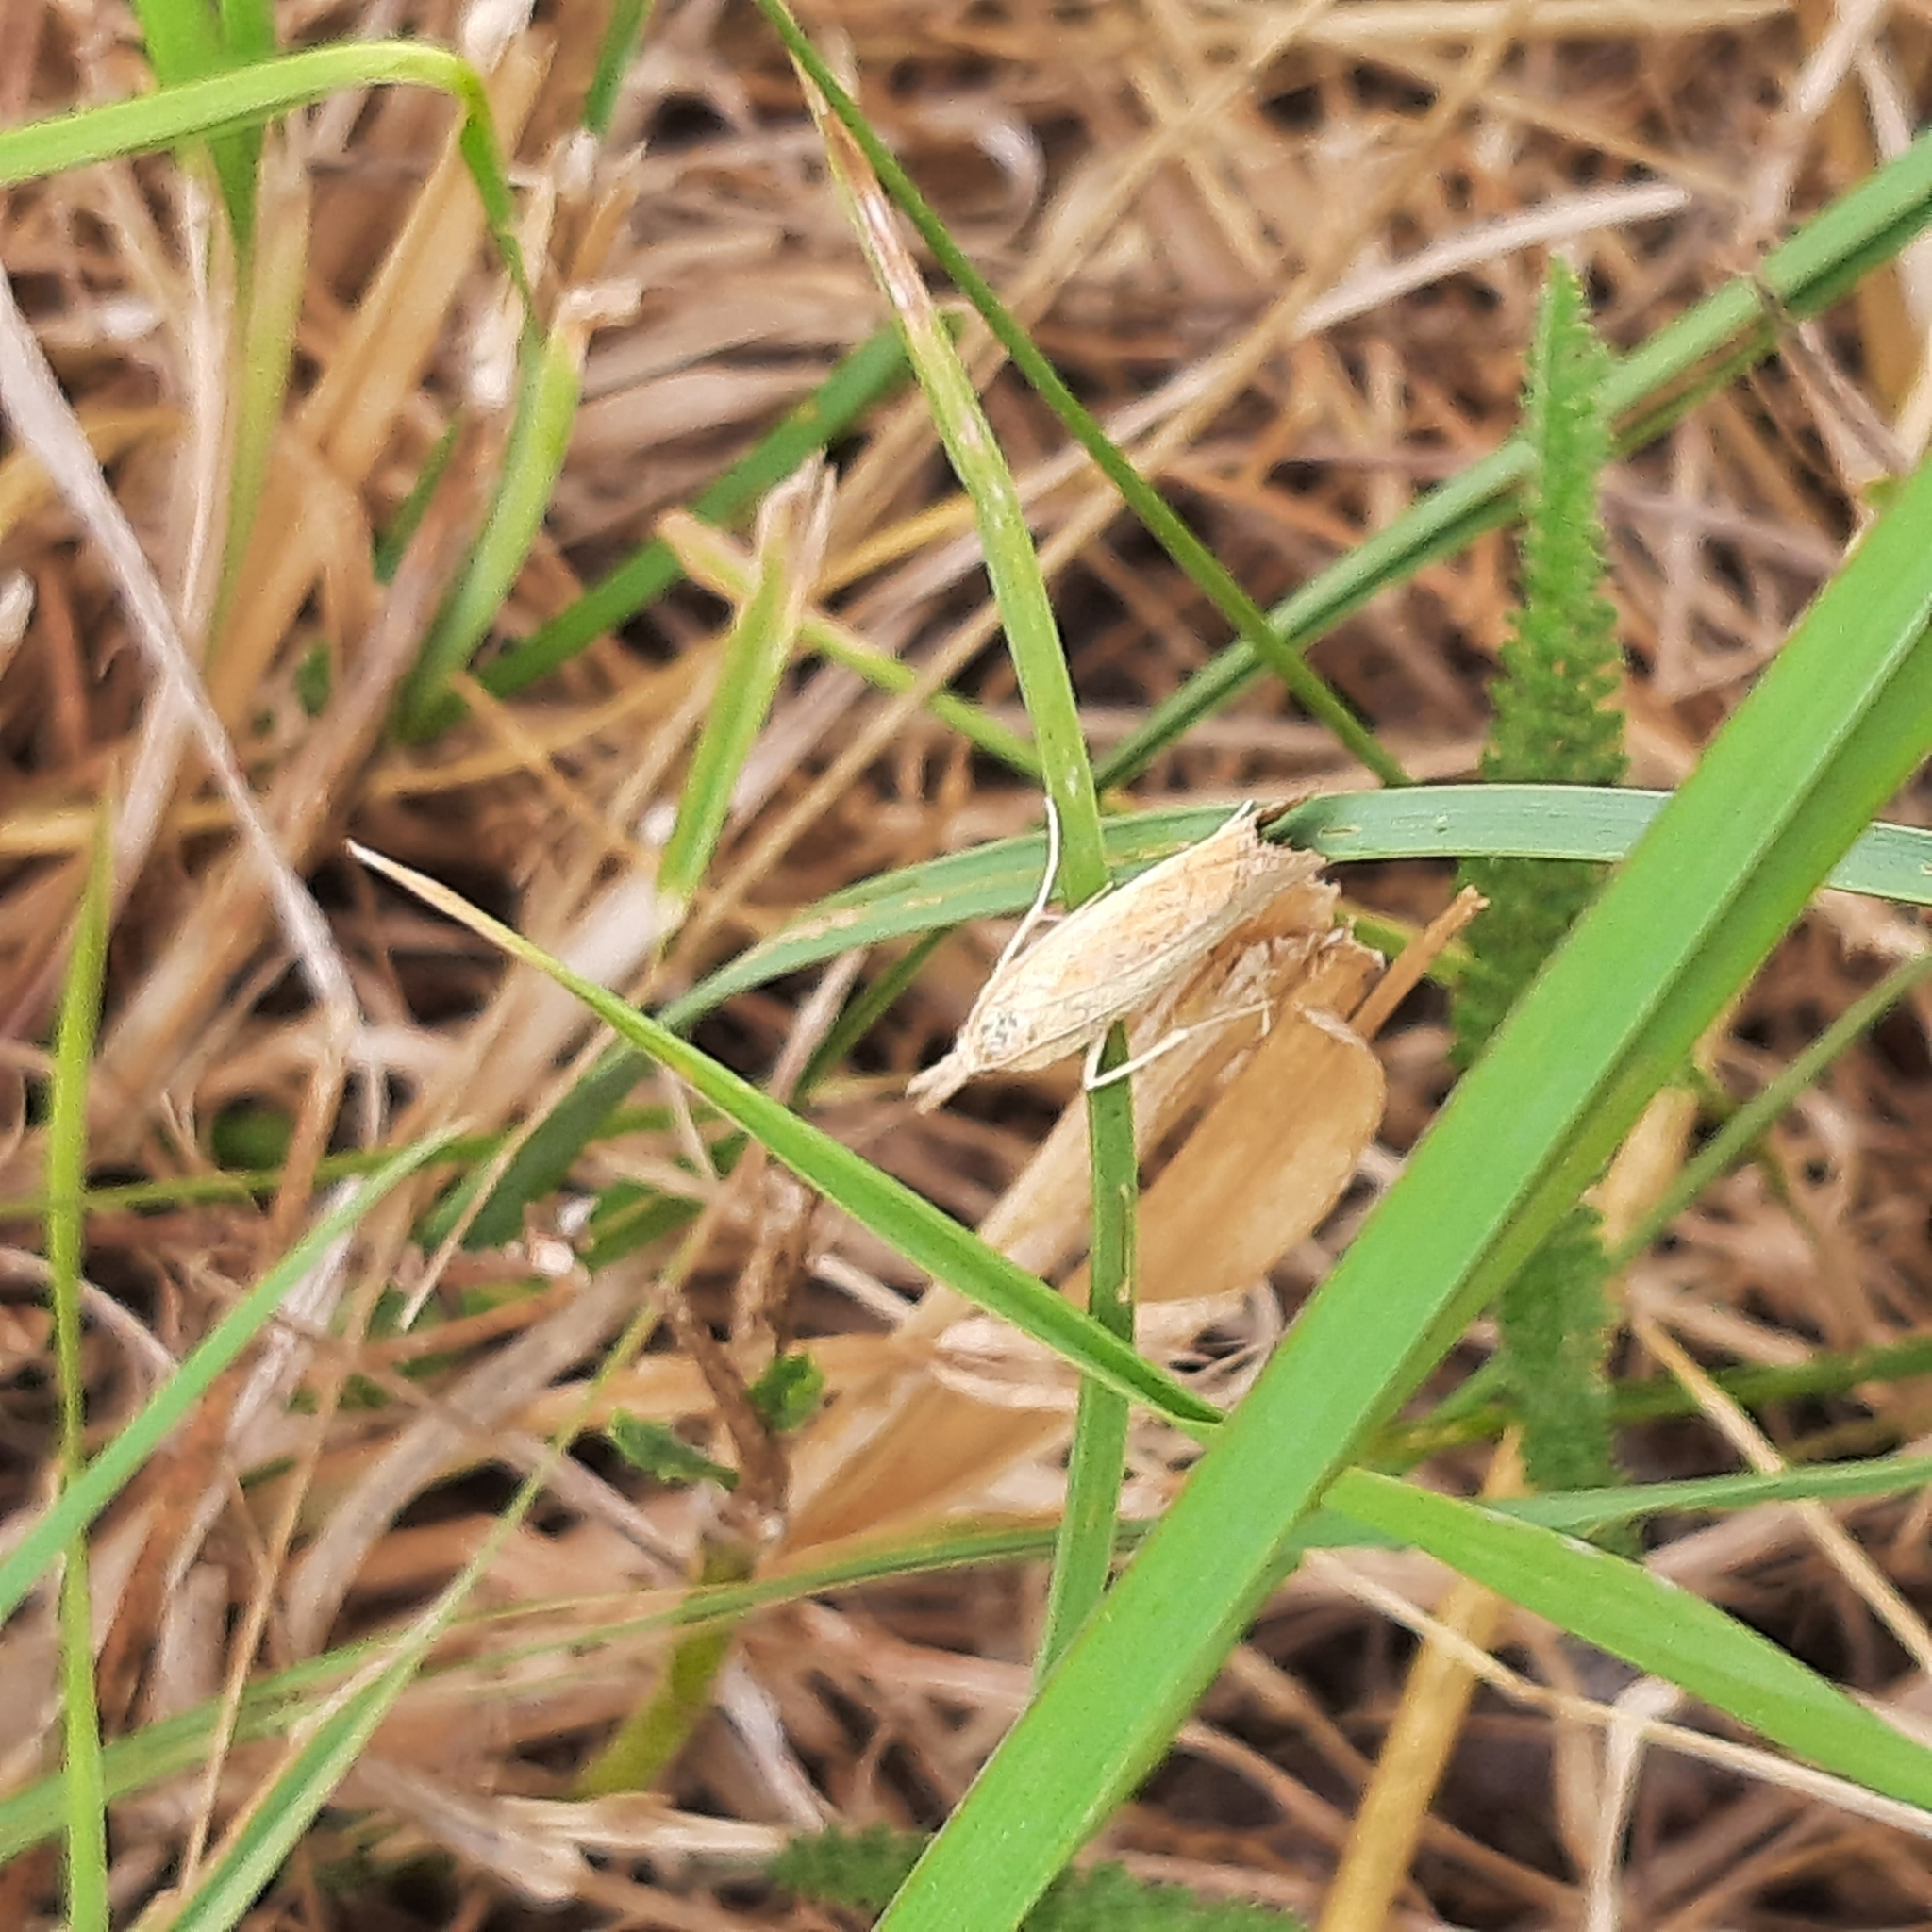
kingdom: Animalia
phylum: Arthropoda
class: Insecta
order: Lepidoptera
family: Crambidae
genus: Agriphila
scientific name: Agriphila straminella
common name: Straw grass-veneer
